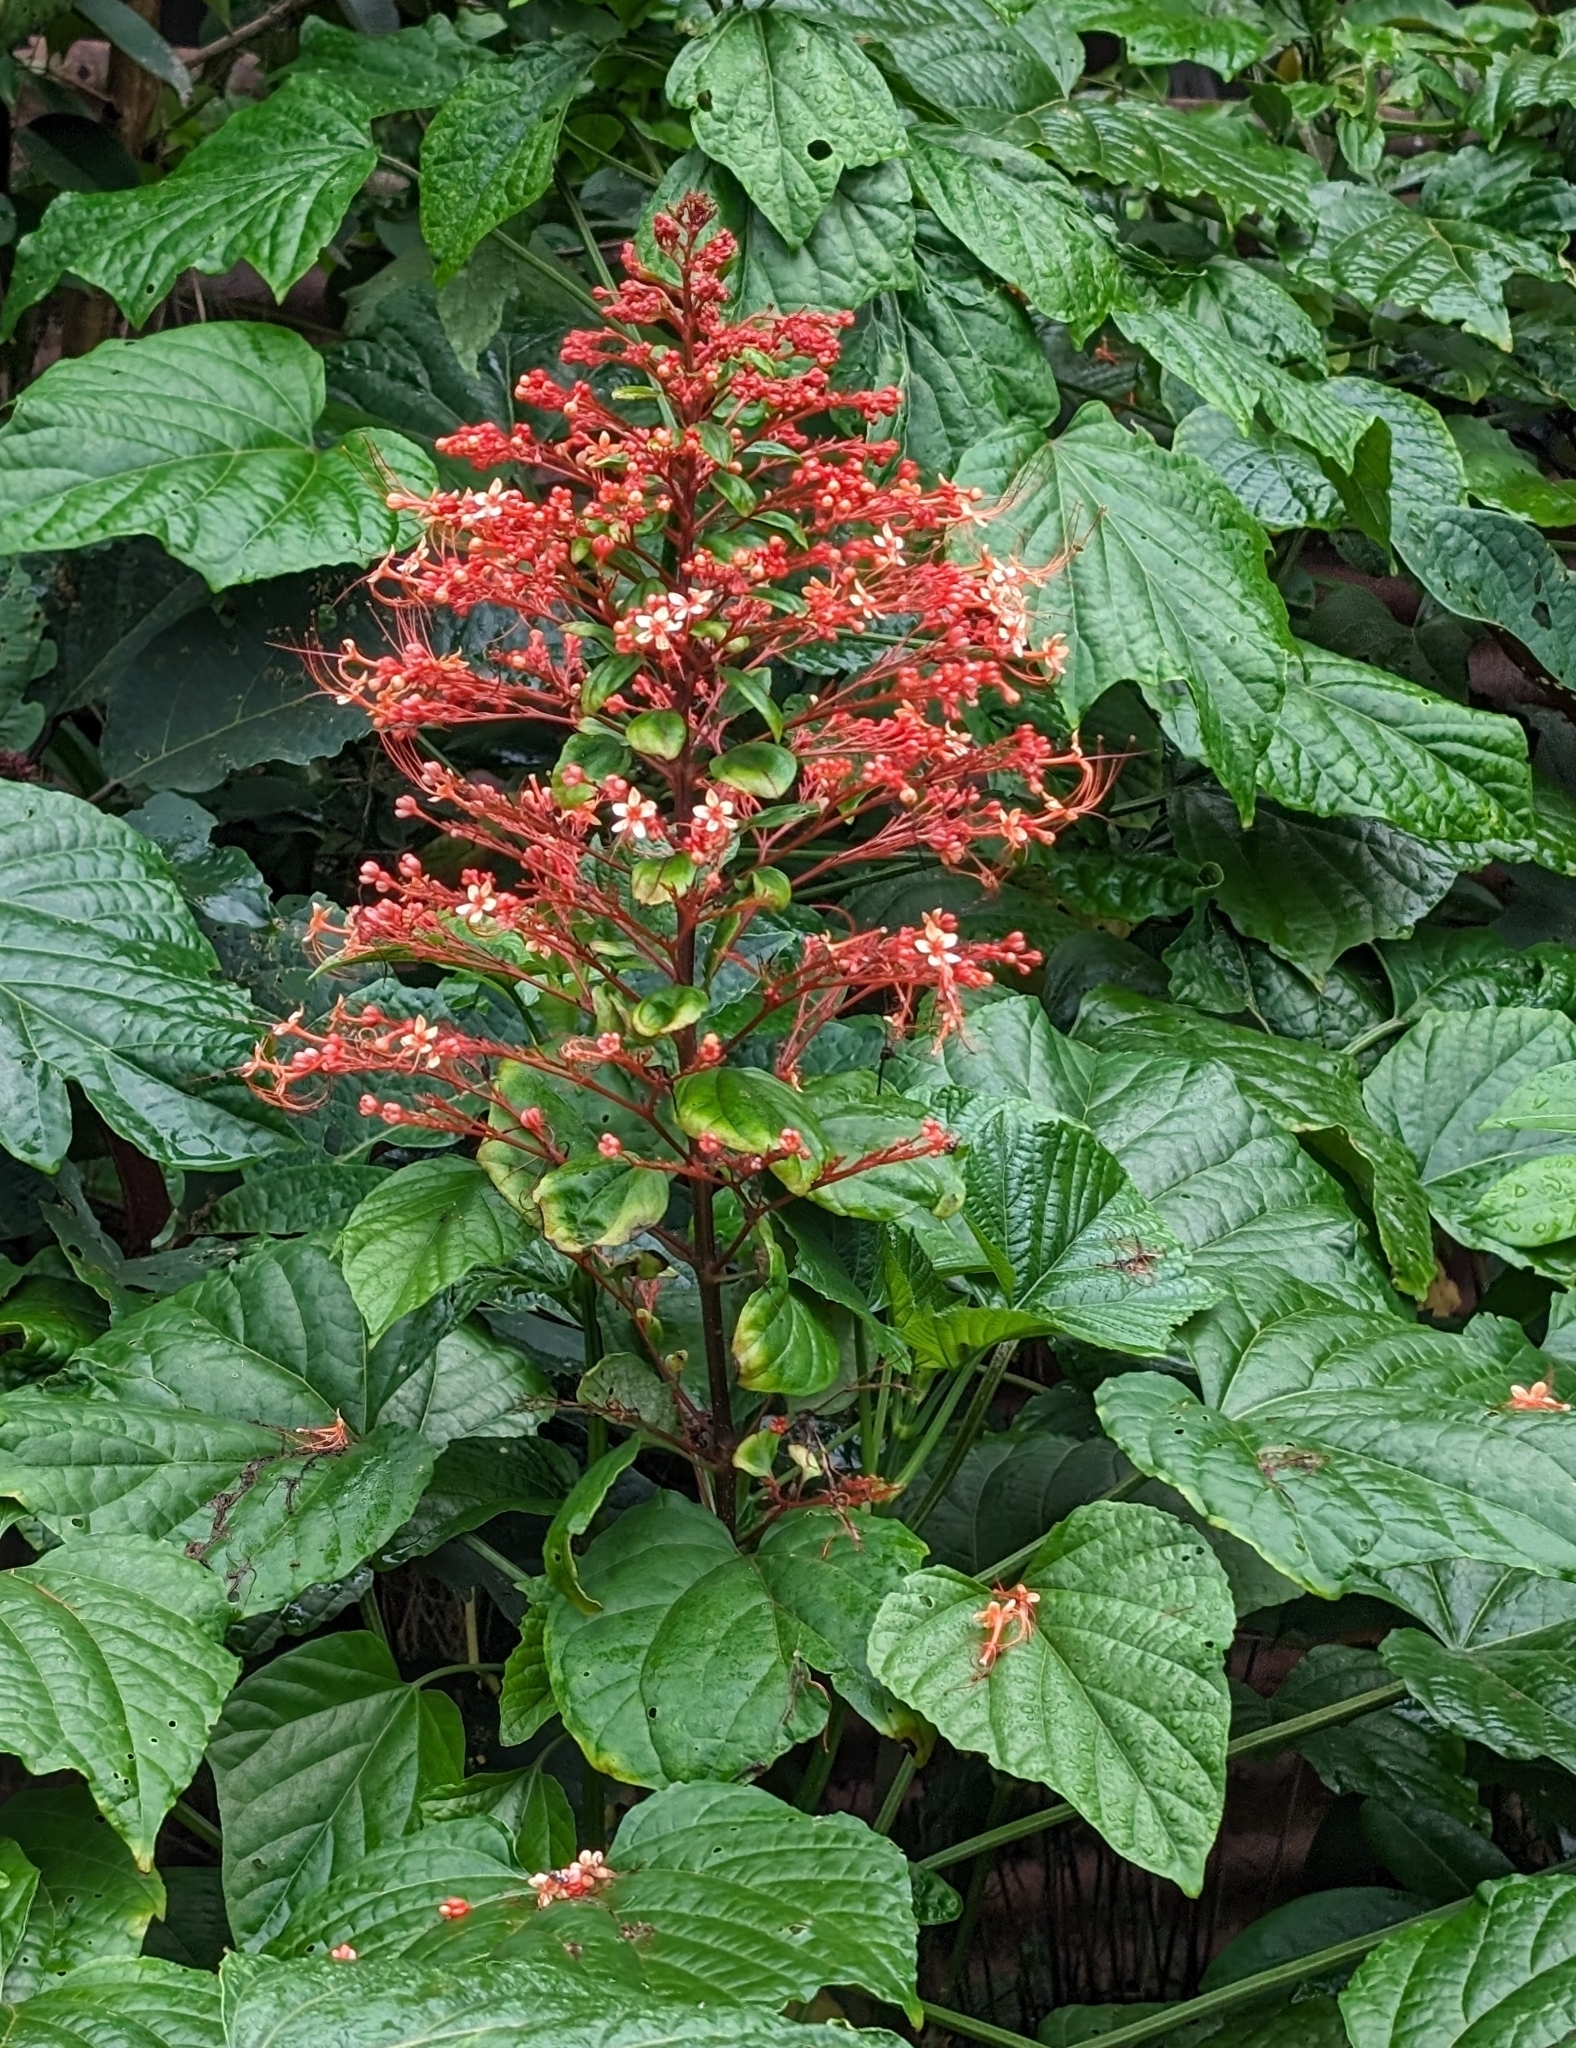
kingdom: Plantae
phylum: Tracheophyta
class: Magnoliopsida
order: Lamiales
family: Lamiaceae
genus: Clerodendrum
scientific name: Clerodendrum paniculatum
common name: Pagoda-flower
